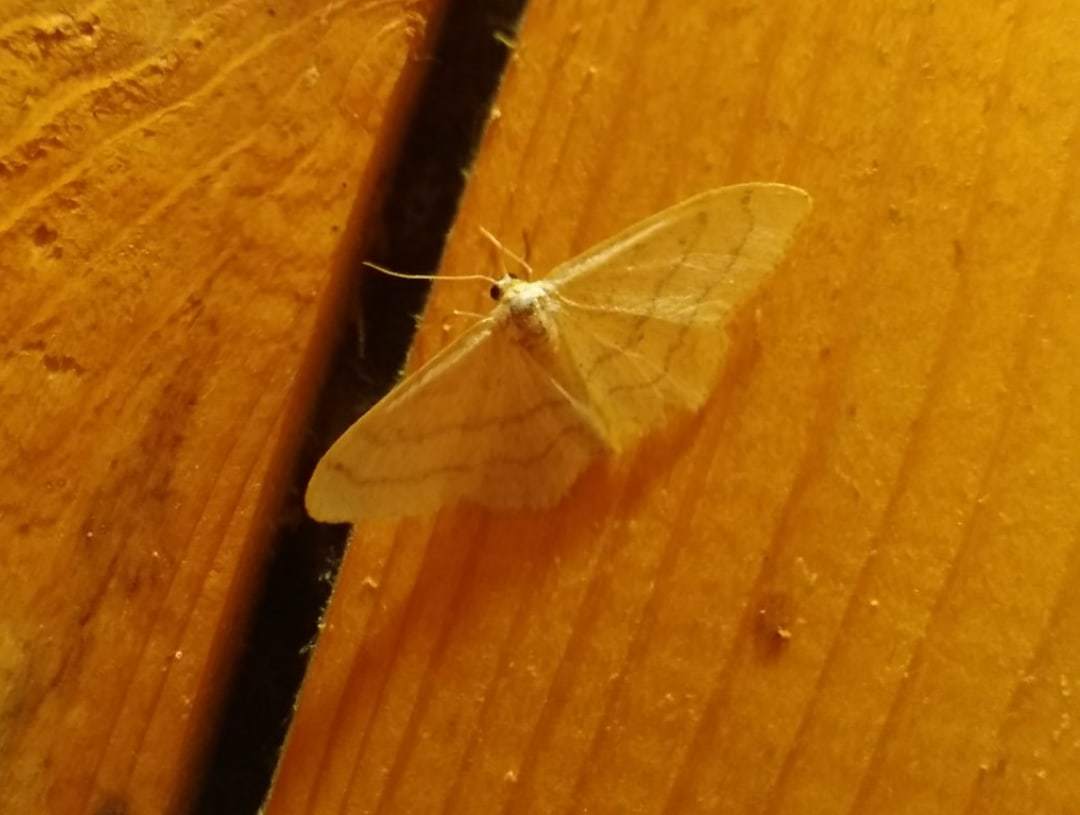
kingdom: Animalia
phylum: Arthropoda
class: Insecta
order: Lepidoptera
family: Geometridae
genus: Idaea
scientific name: Idaea aversata
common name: Riband wave
